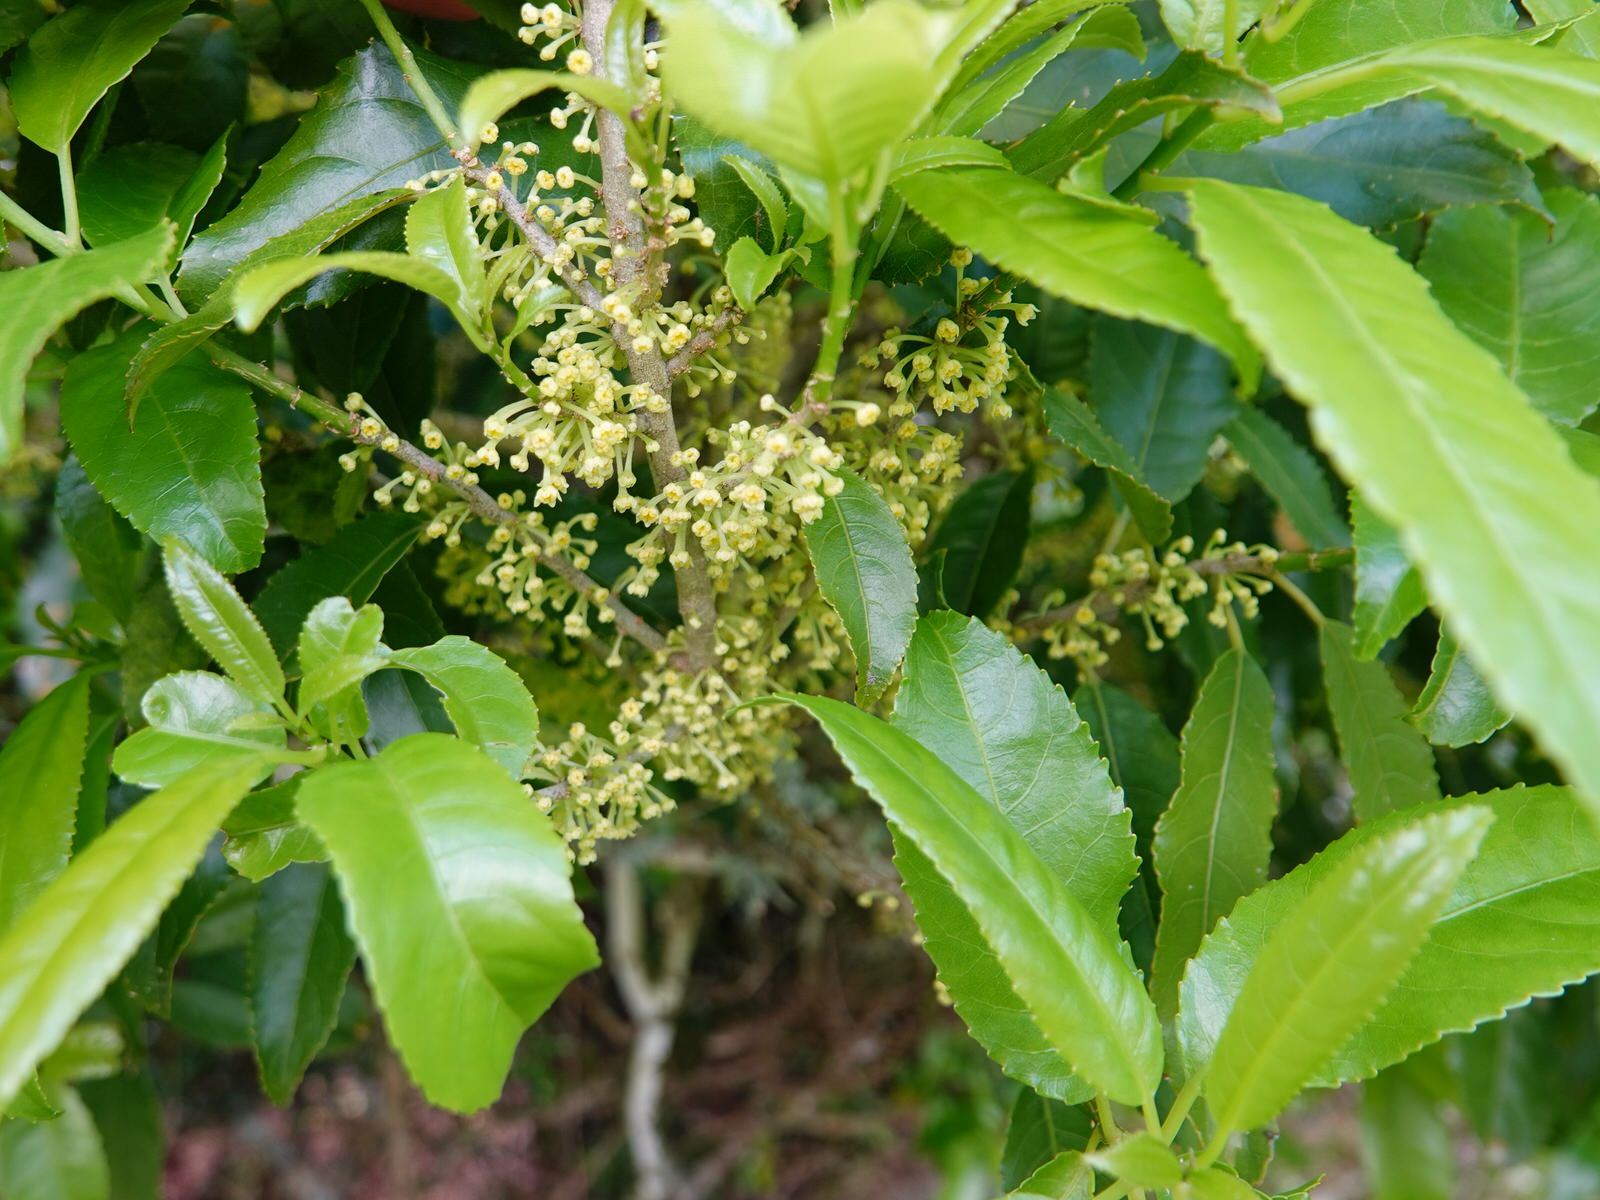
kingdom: Plantae
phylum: Tracheophyta
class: Magnoliopsida
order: Malpighiales
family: Violaceae
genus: Melicytus
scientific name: Melicytus ramiflorus
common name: Mahoe
